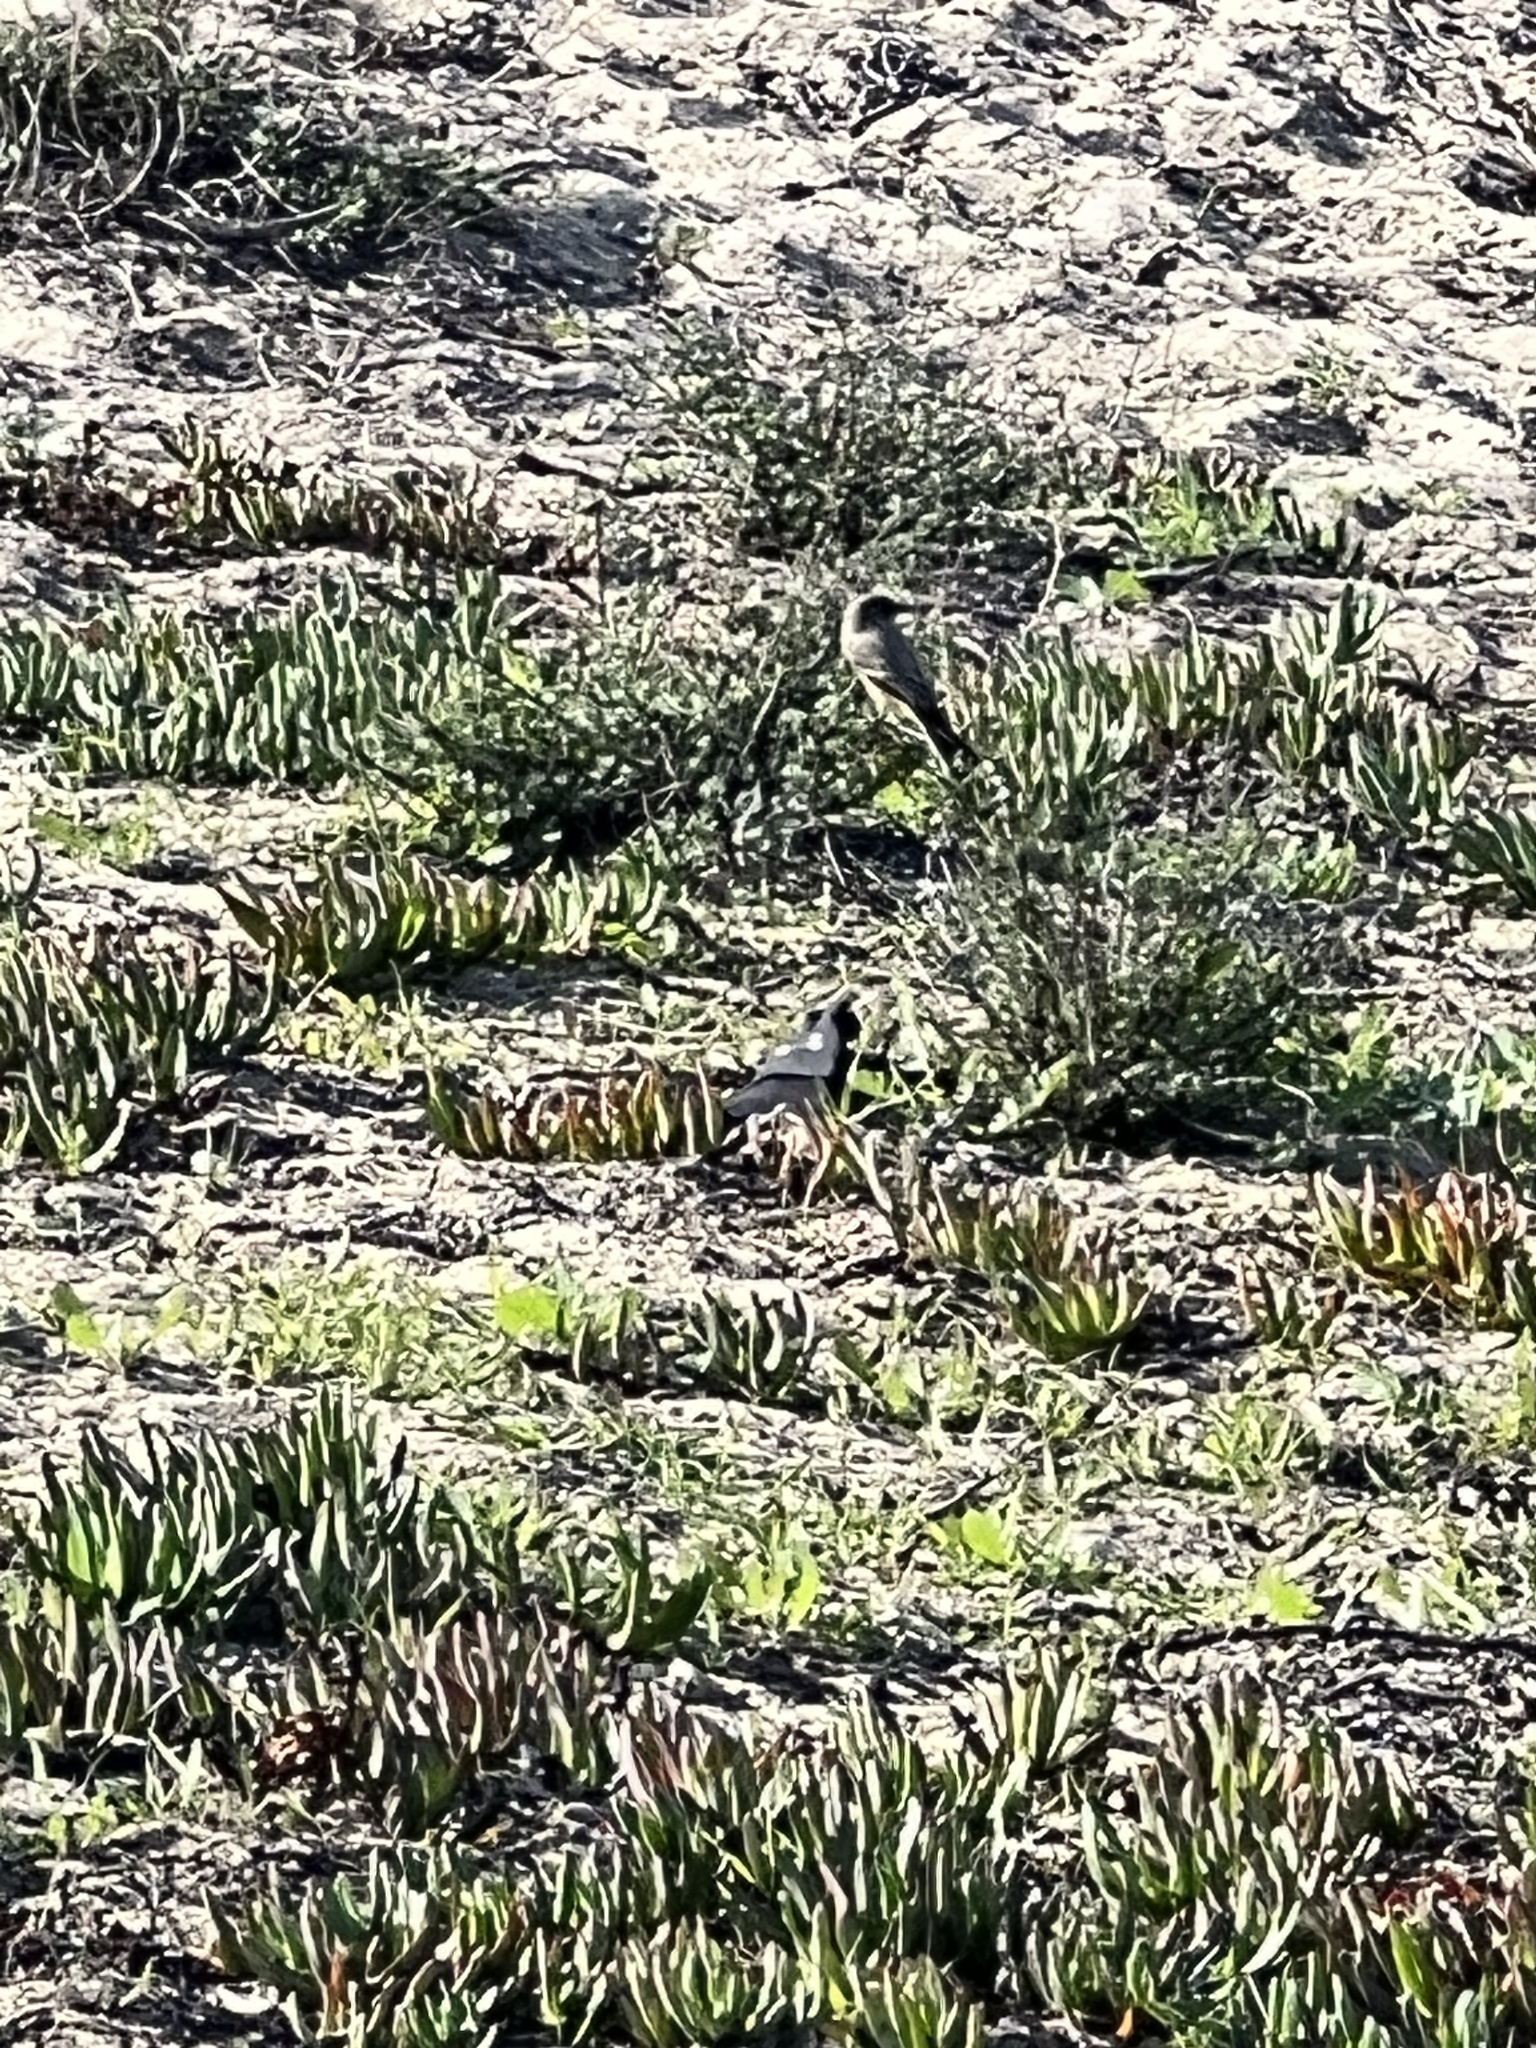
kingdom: Animalia
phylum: Chordata
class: Aves
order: Passeriformes
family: Tyrannidae
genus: Sayornis
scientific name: Sayornis saya
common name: Say's phoebe
